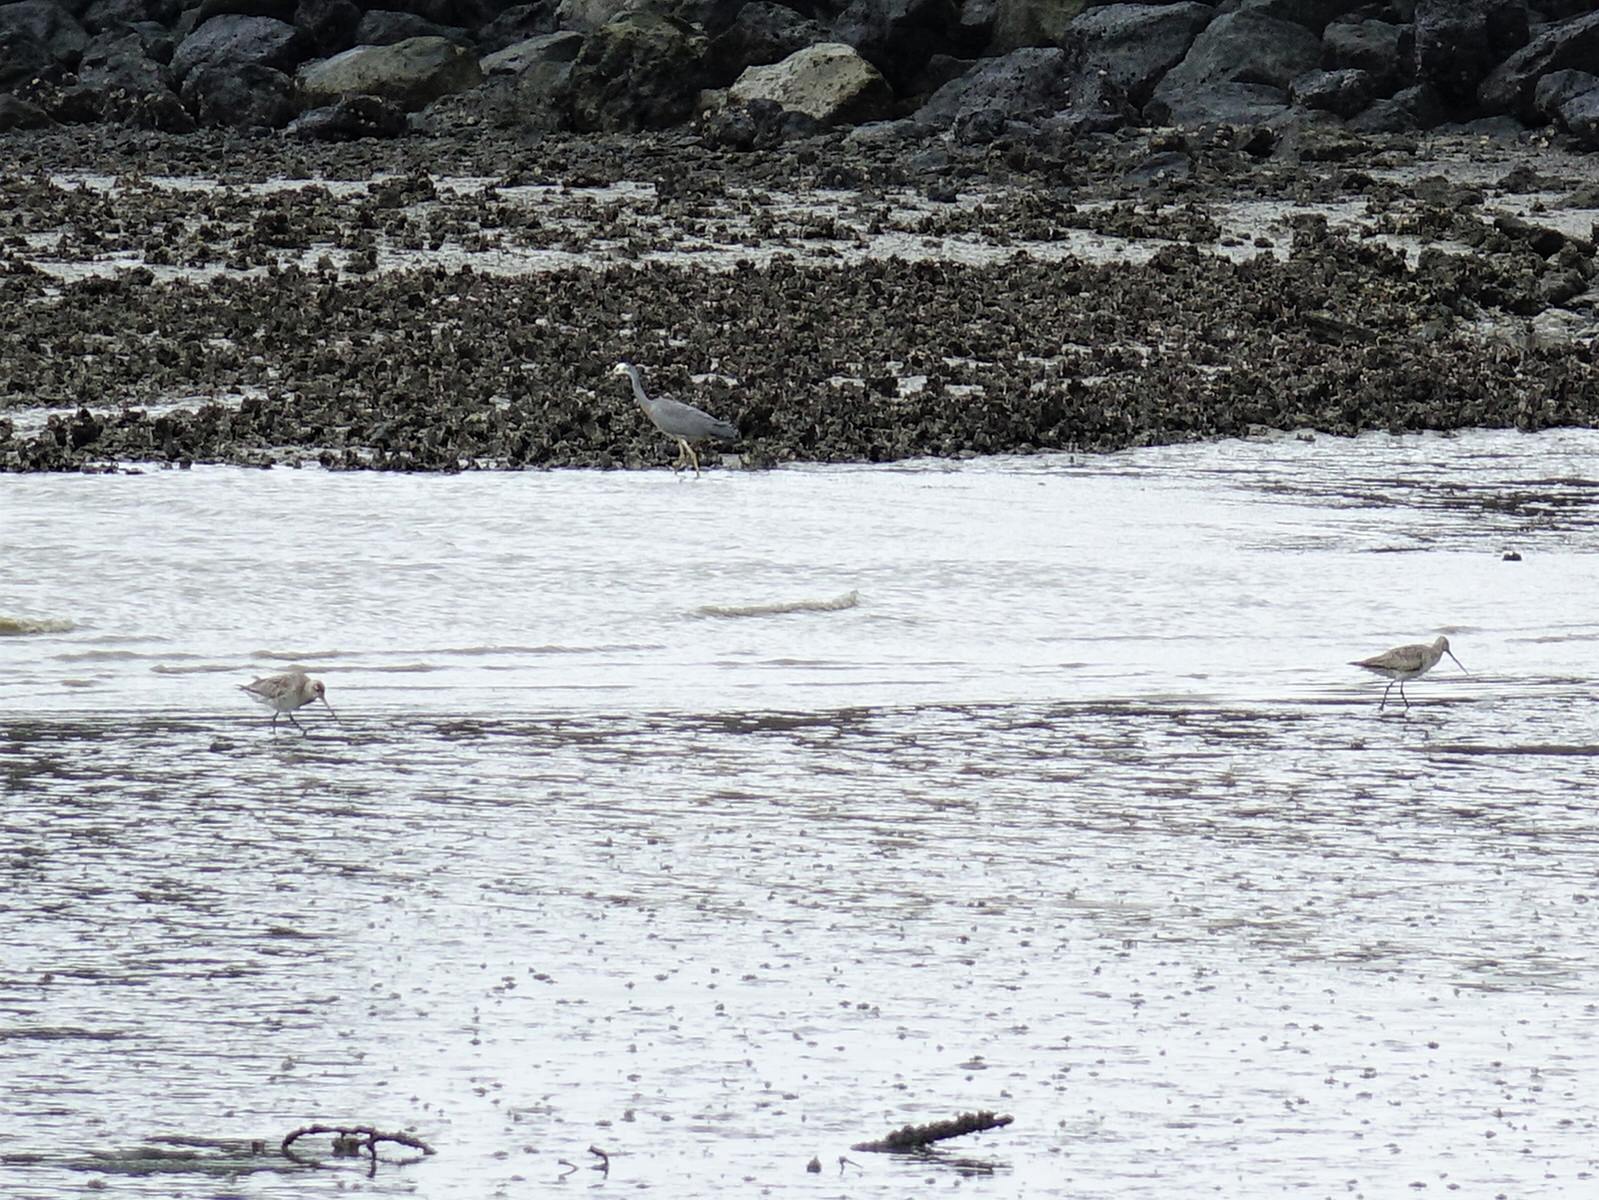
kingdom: Animalia
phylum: Chordata
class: Aves
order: Charadriiformes
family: Scolopacidae
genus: Limosa
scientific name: Limosa lapponica
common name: Bar-tailed godwit
